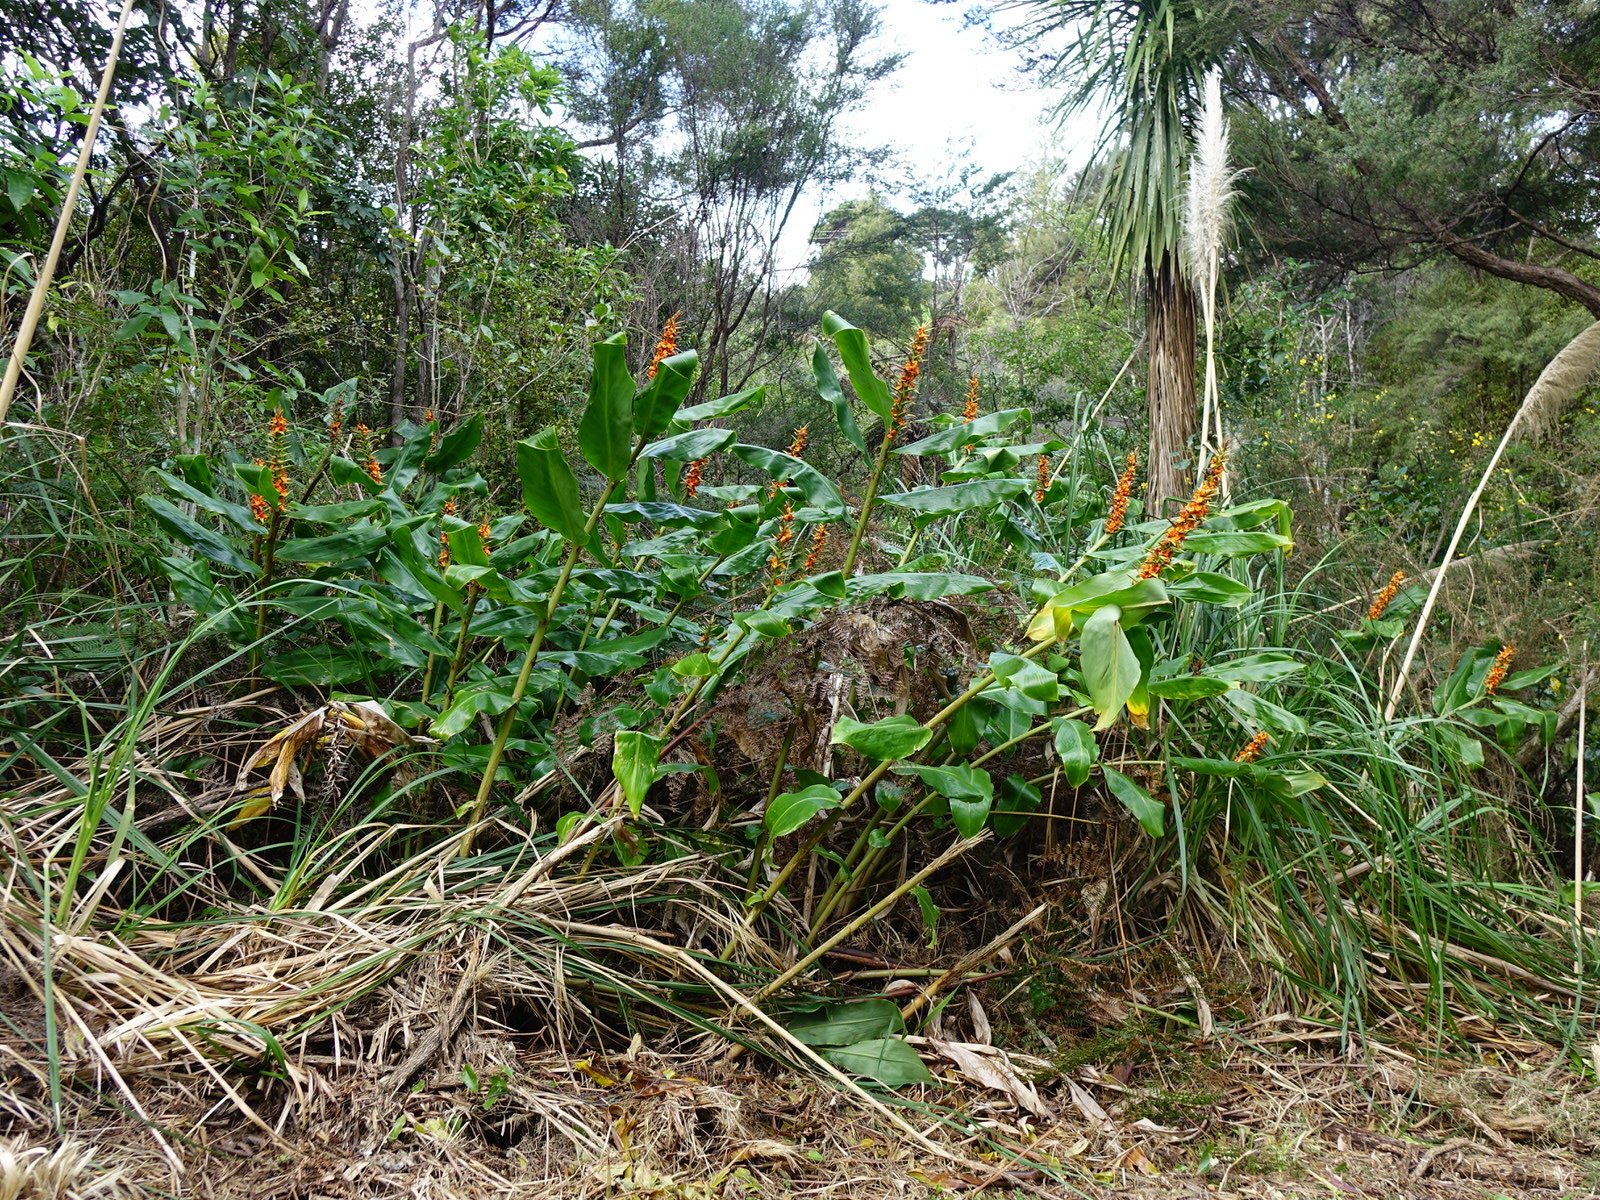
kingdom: Plantae
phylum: Tracheophyta
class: Liliopsida
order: Zingiberales
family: Zingiberaceae
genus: Hedychium
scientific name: Hedychium gardnerianum
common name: Himalayan ginger
